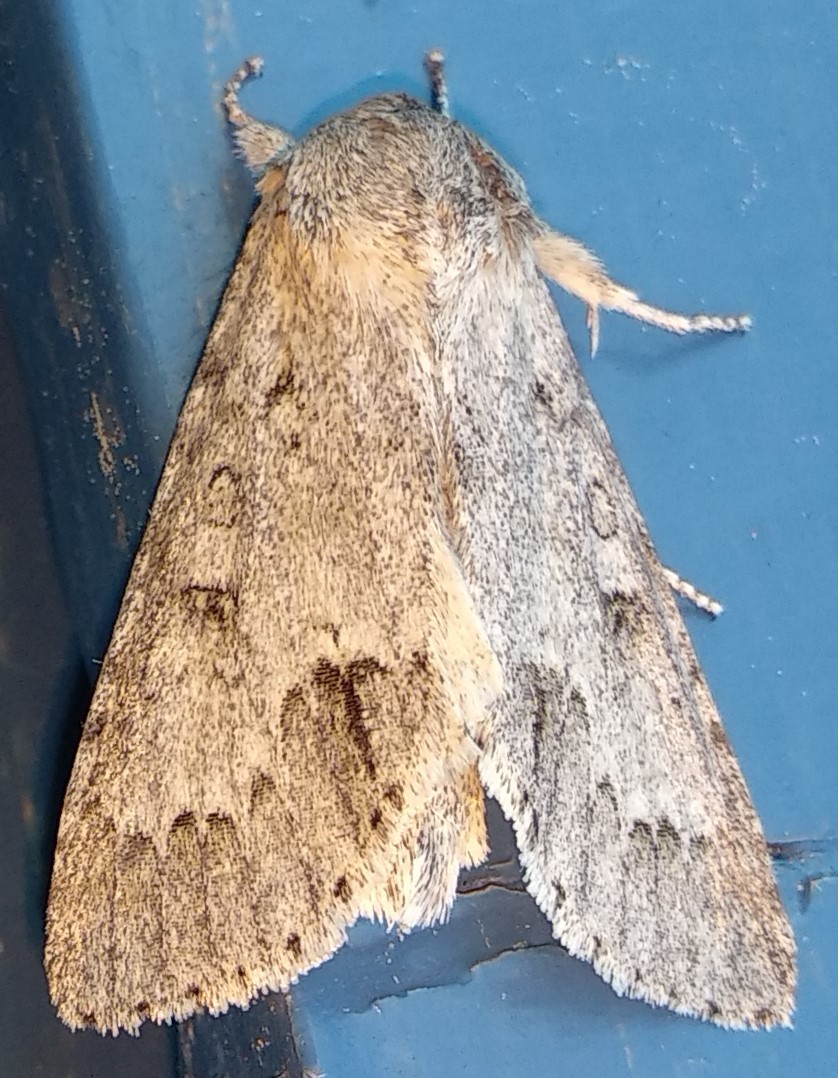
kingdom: Animalia
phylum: Arthropoda
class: Insecta
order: Lepidoptera
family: Noctuidae
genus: Acronicta
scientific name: Acronicta insita
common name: Large gray dagger
